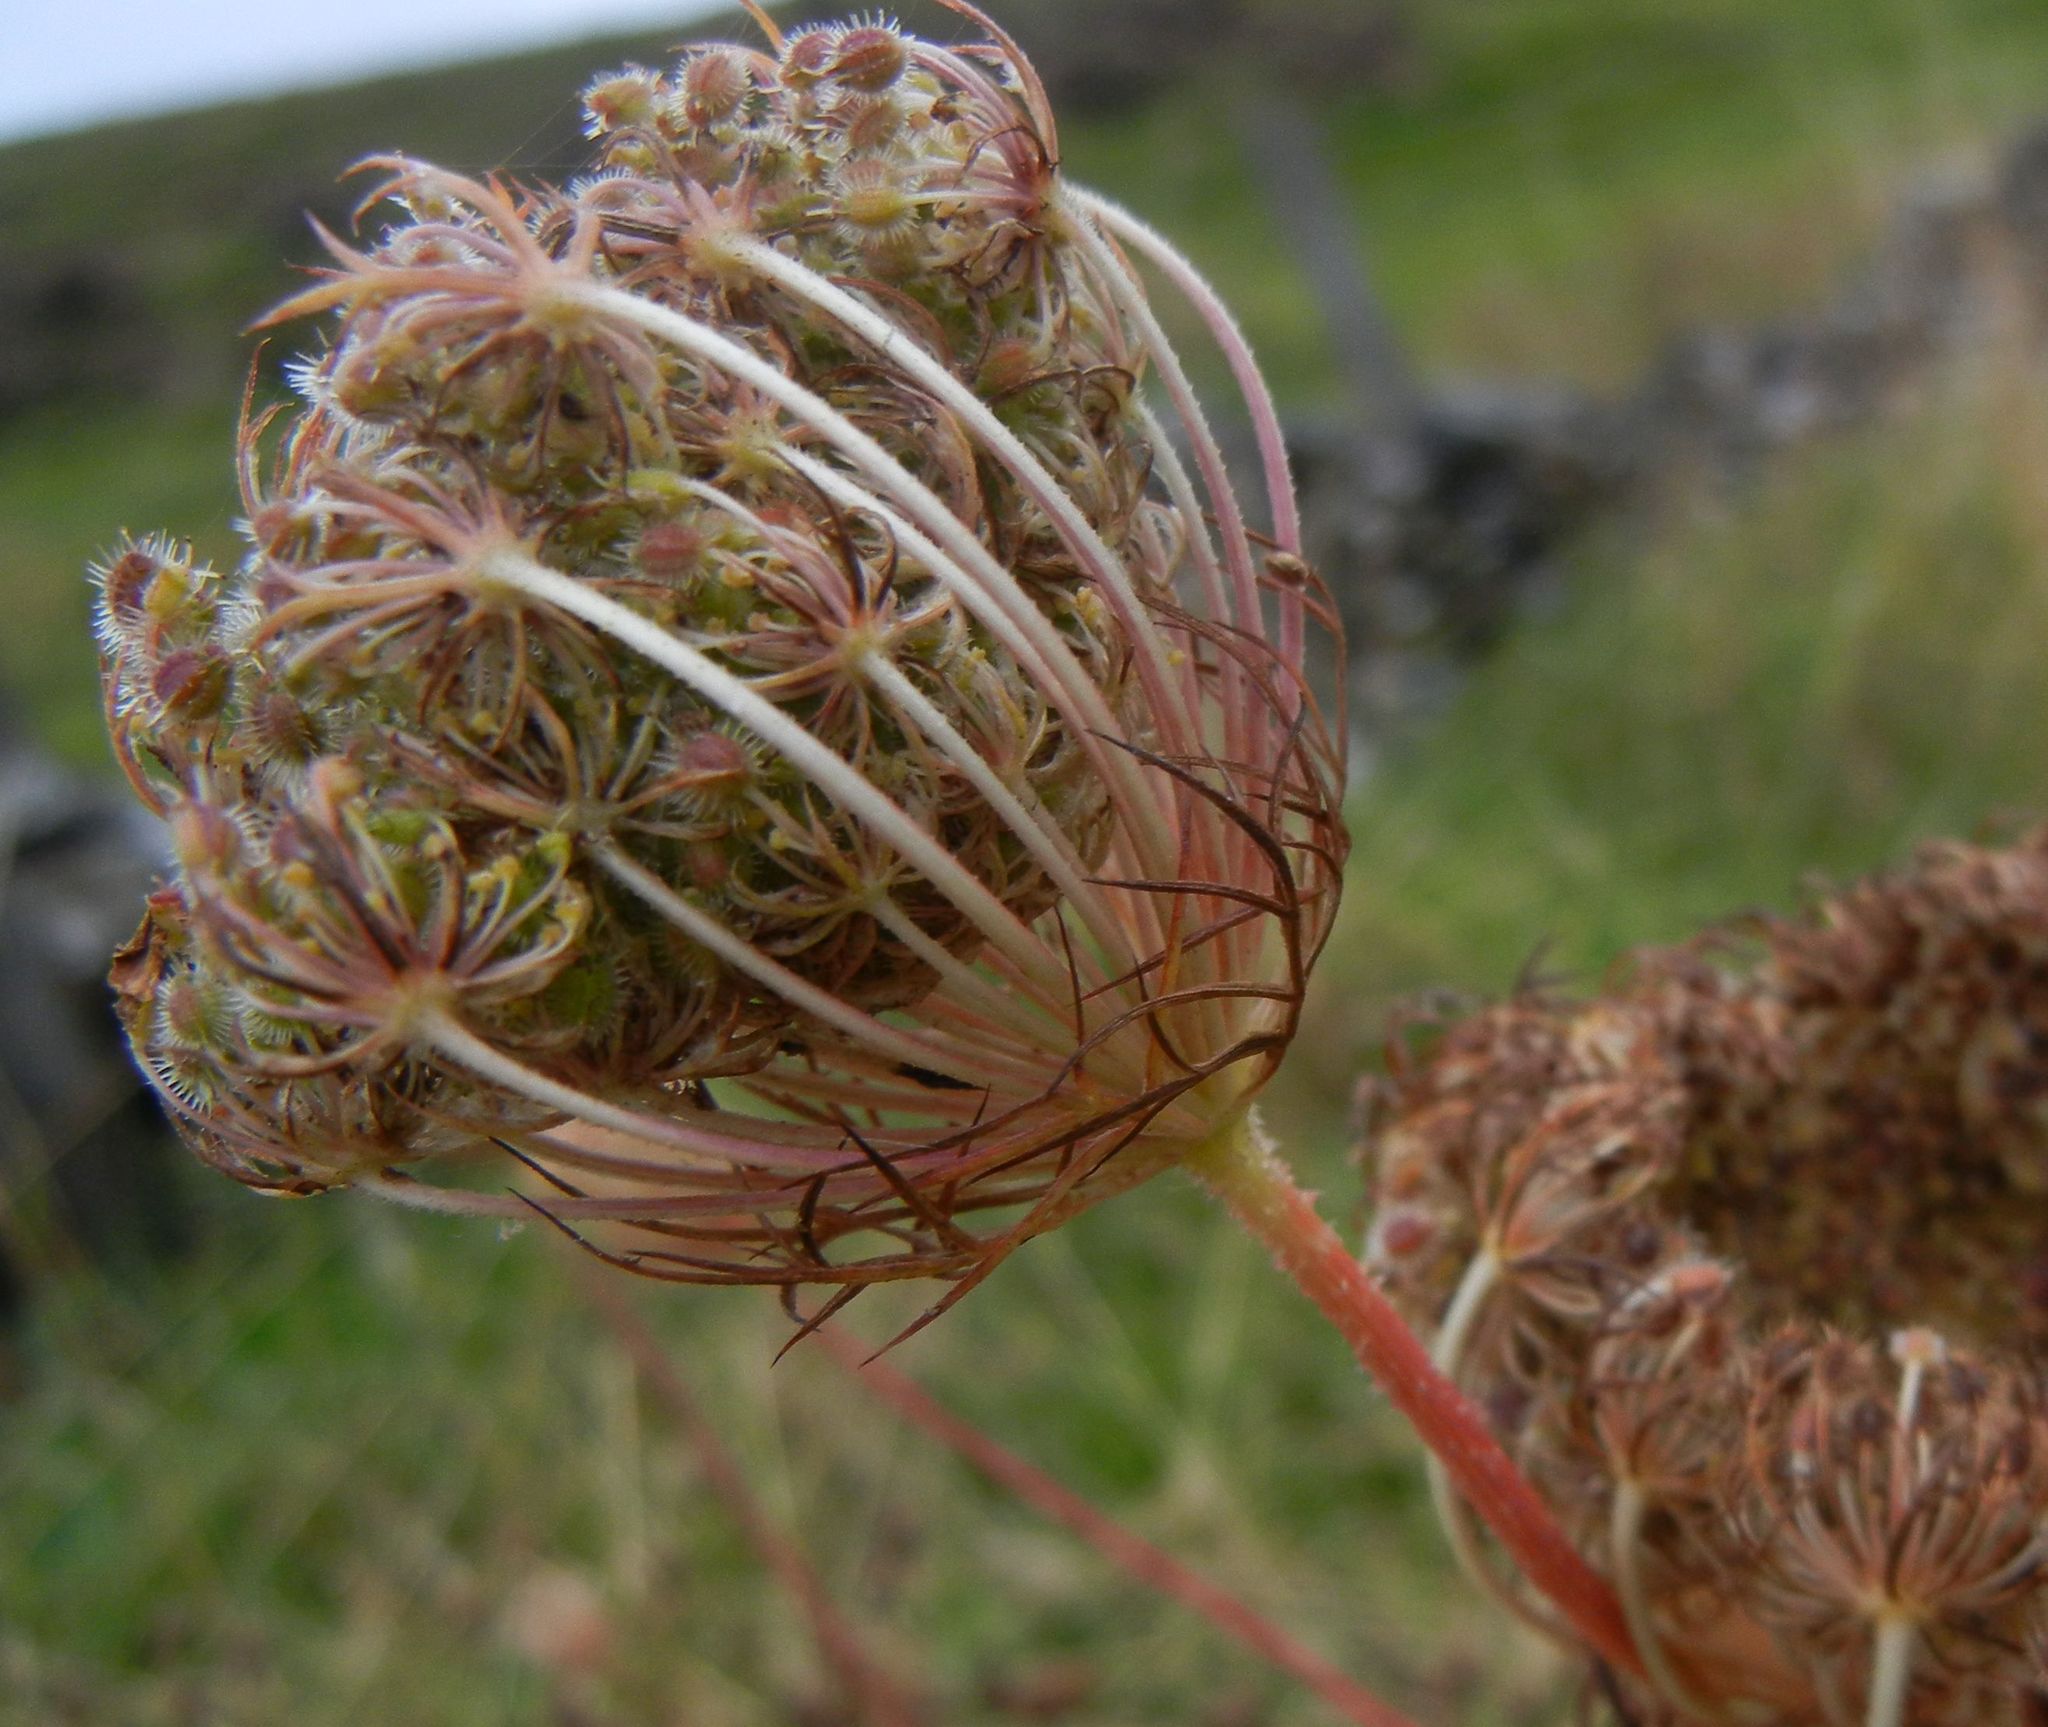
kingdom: Plantae
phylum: Tracheophyta
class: Magnoliopsida
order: Apiales
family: Apiaceae
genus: Daucus
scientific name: Daucus carota
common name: Wild carrot
